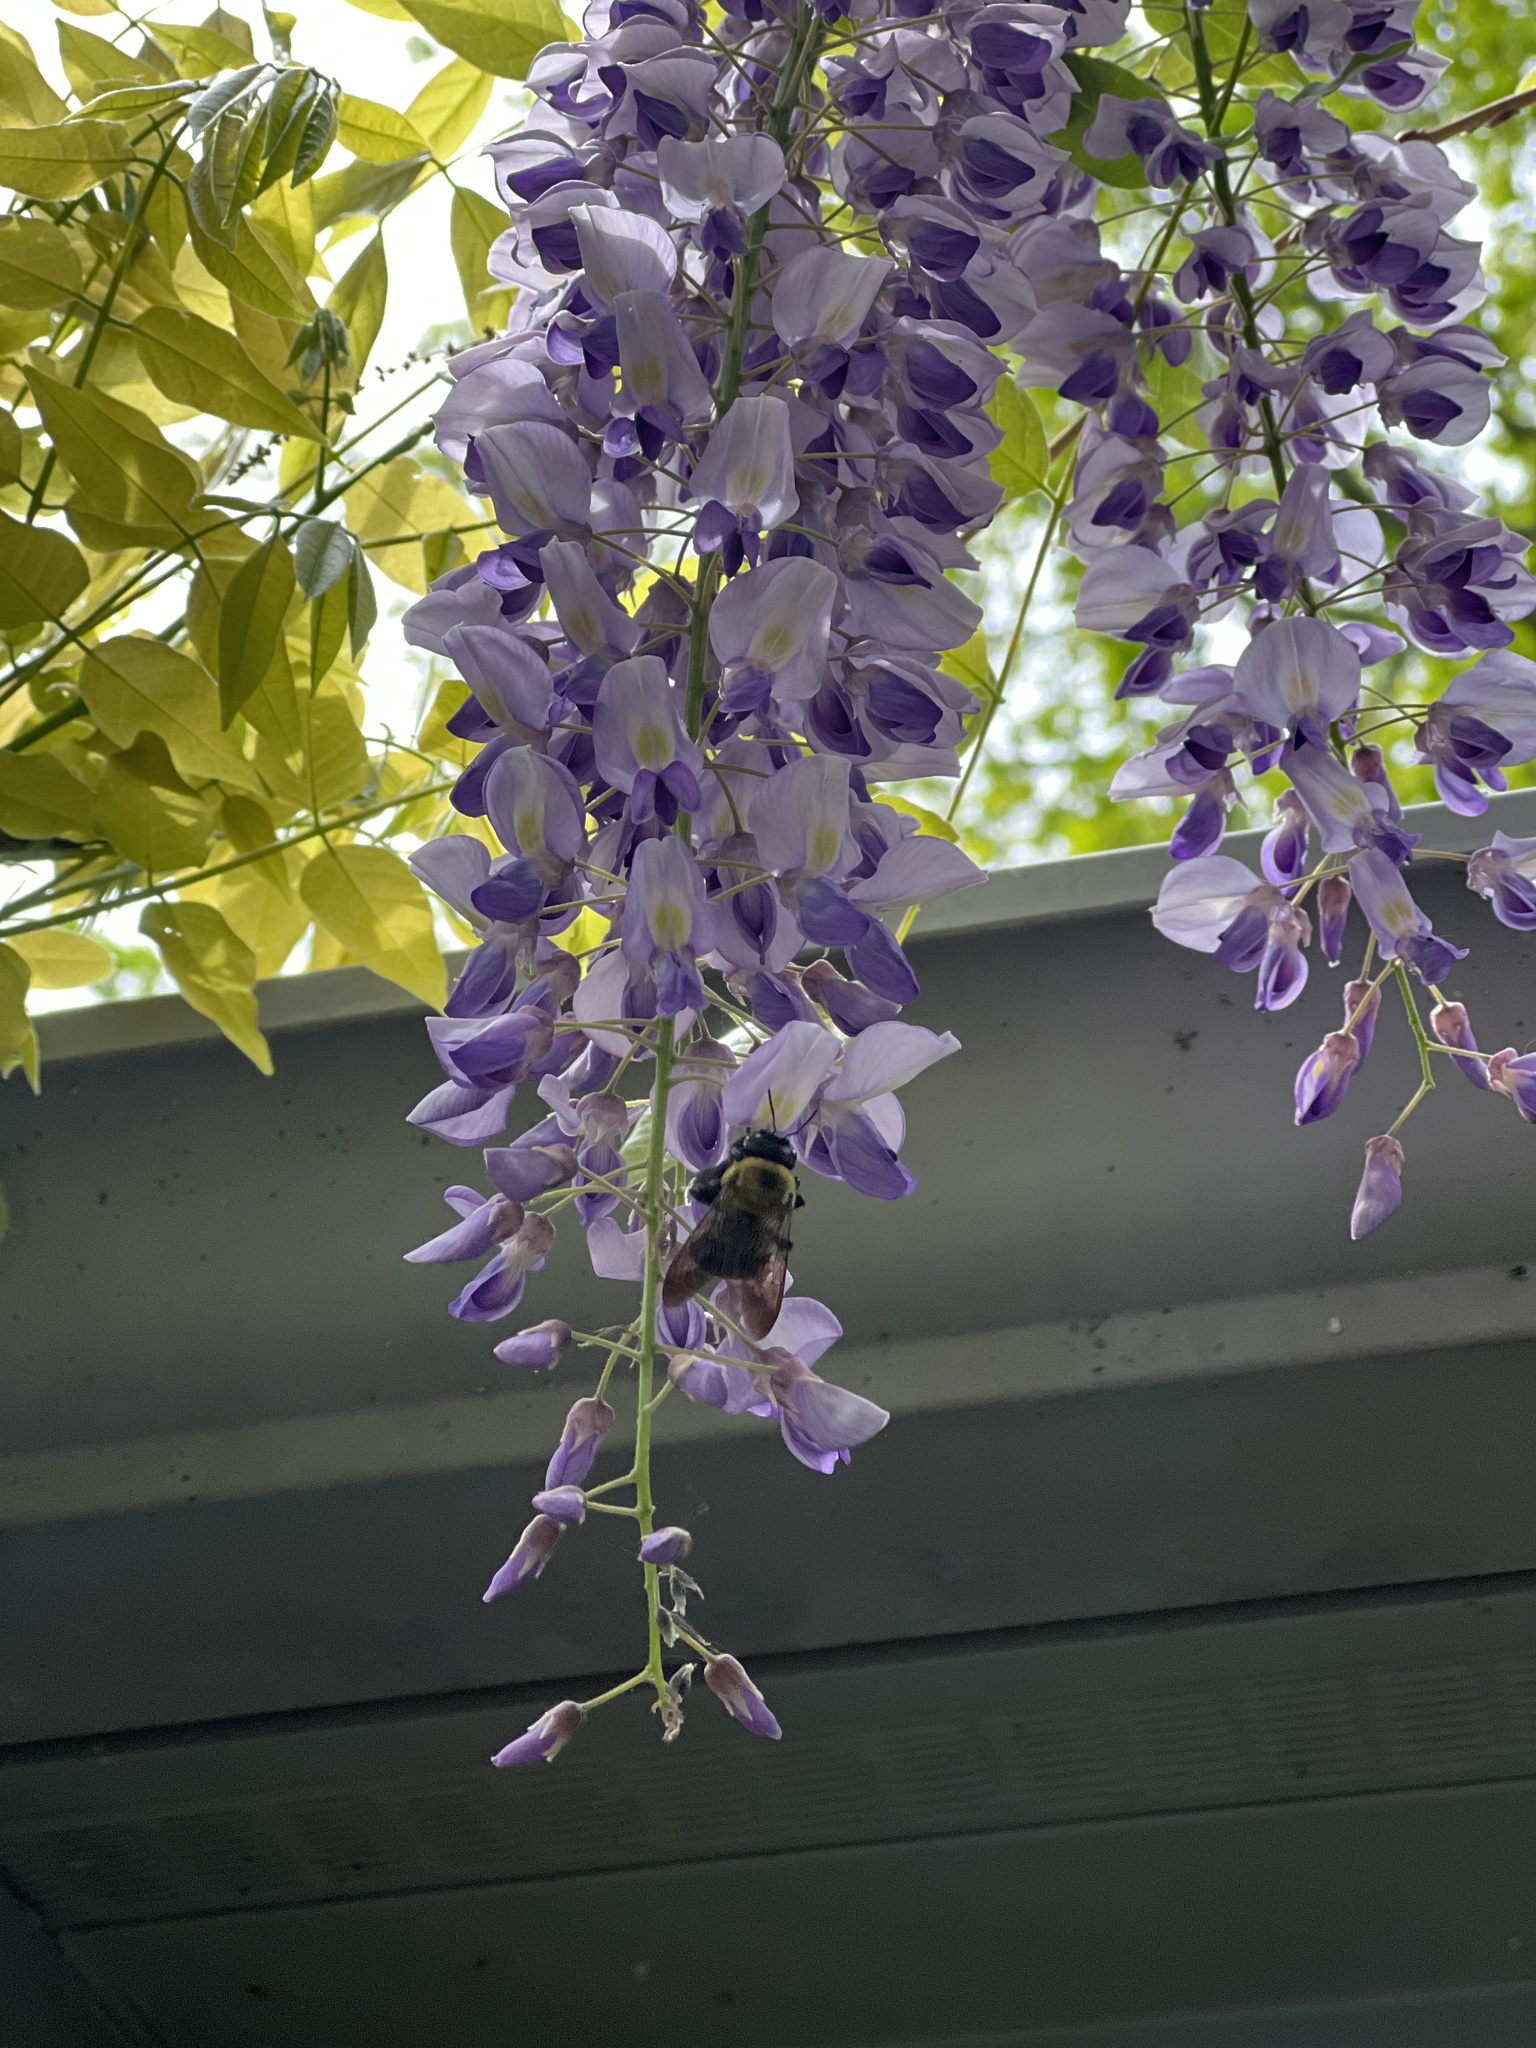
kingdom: Animalia
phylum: Arthropoda
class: Insecta
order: Hymenoptera
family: Apidae
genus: Xylocopa
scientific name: Xylocopa virginica
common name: Carpenter bee
